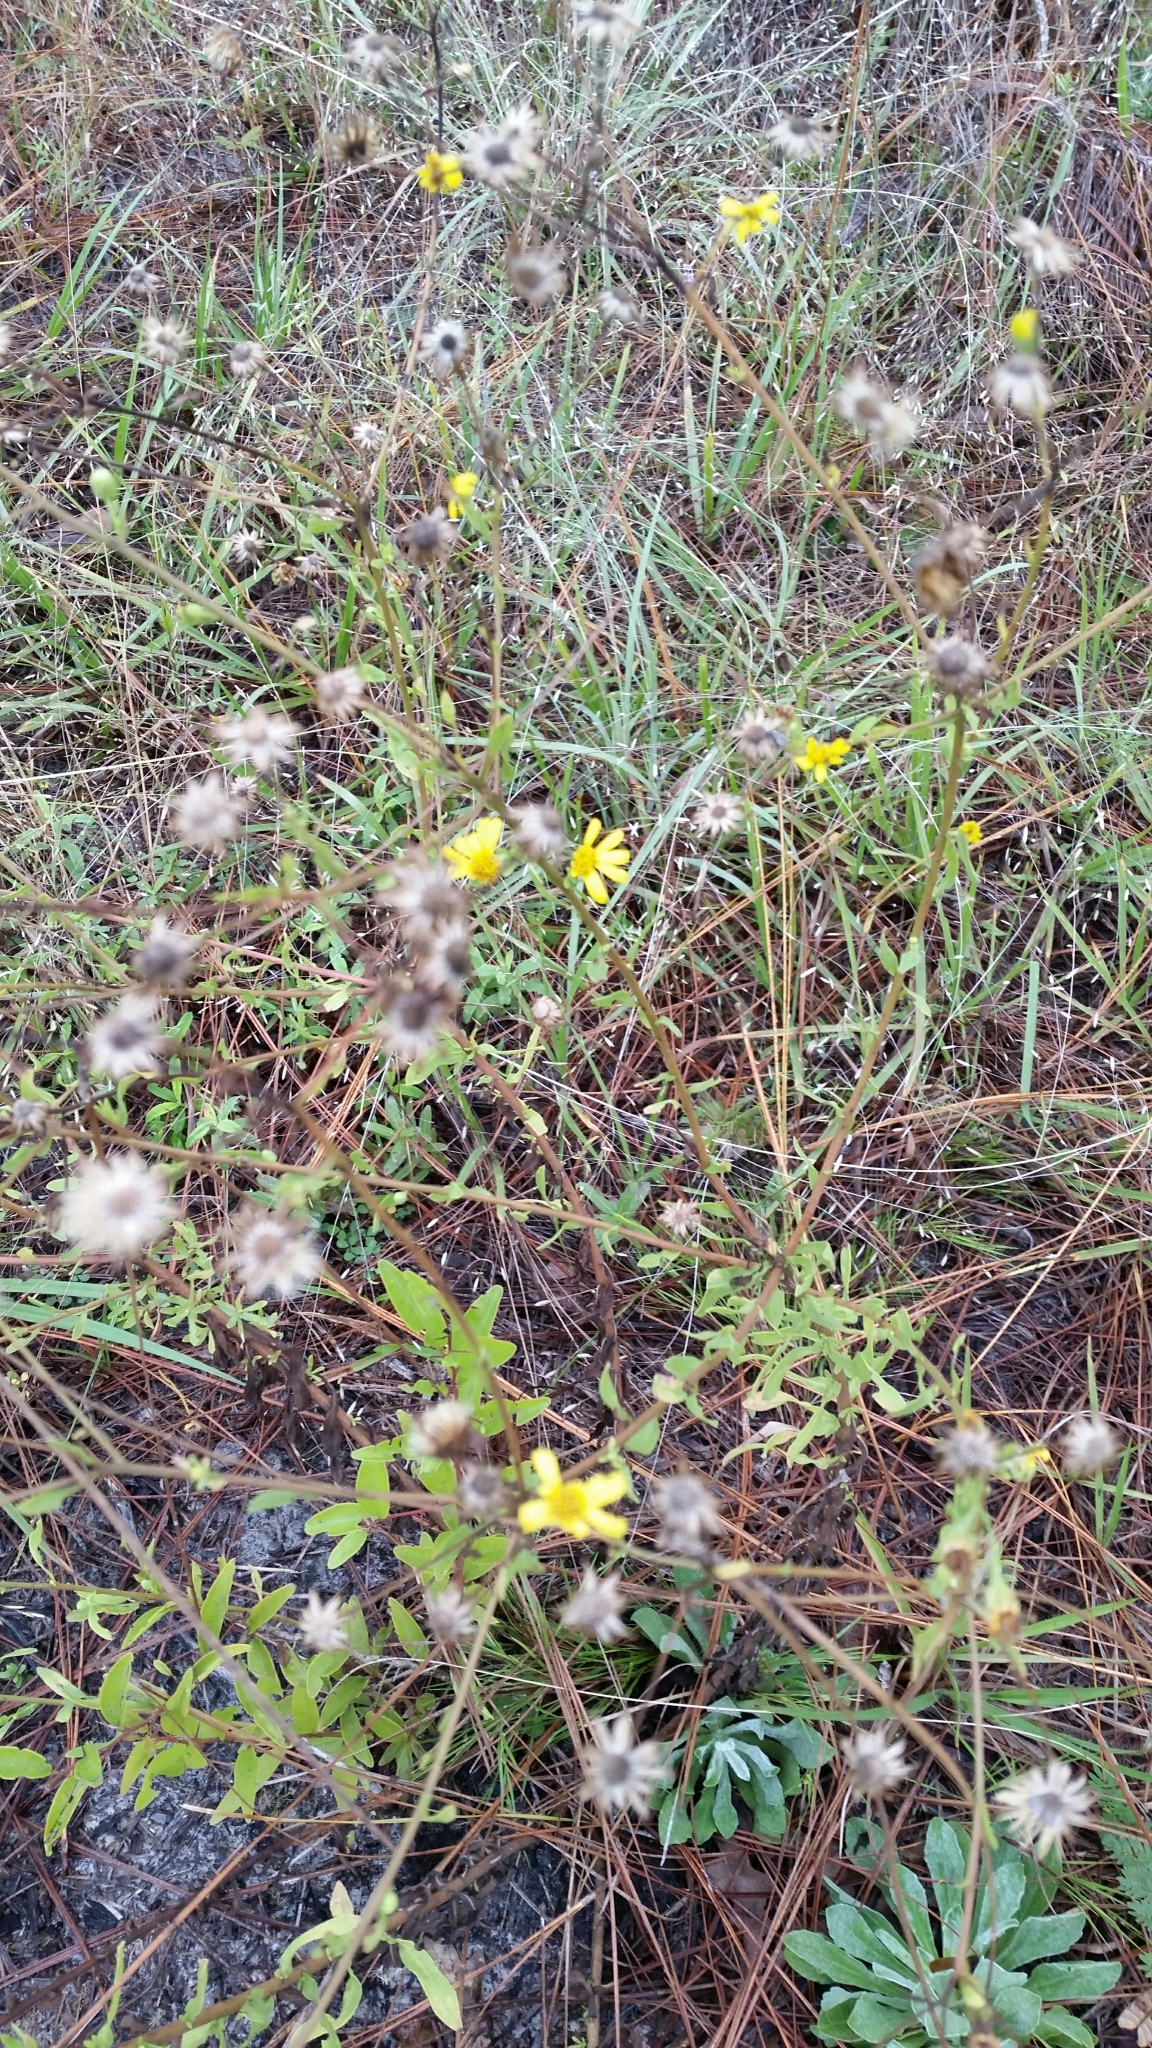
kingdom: Plantae
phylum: Tracheophyta
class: Magnoliopsida
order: Asterales
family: Asteraceae
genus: Chrysopsis
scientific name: Chrysopsis scabrella
